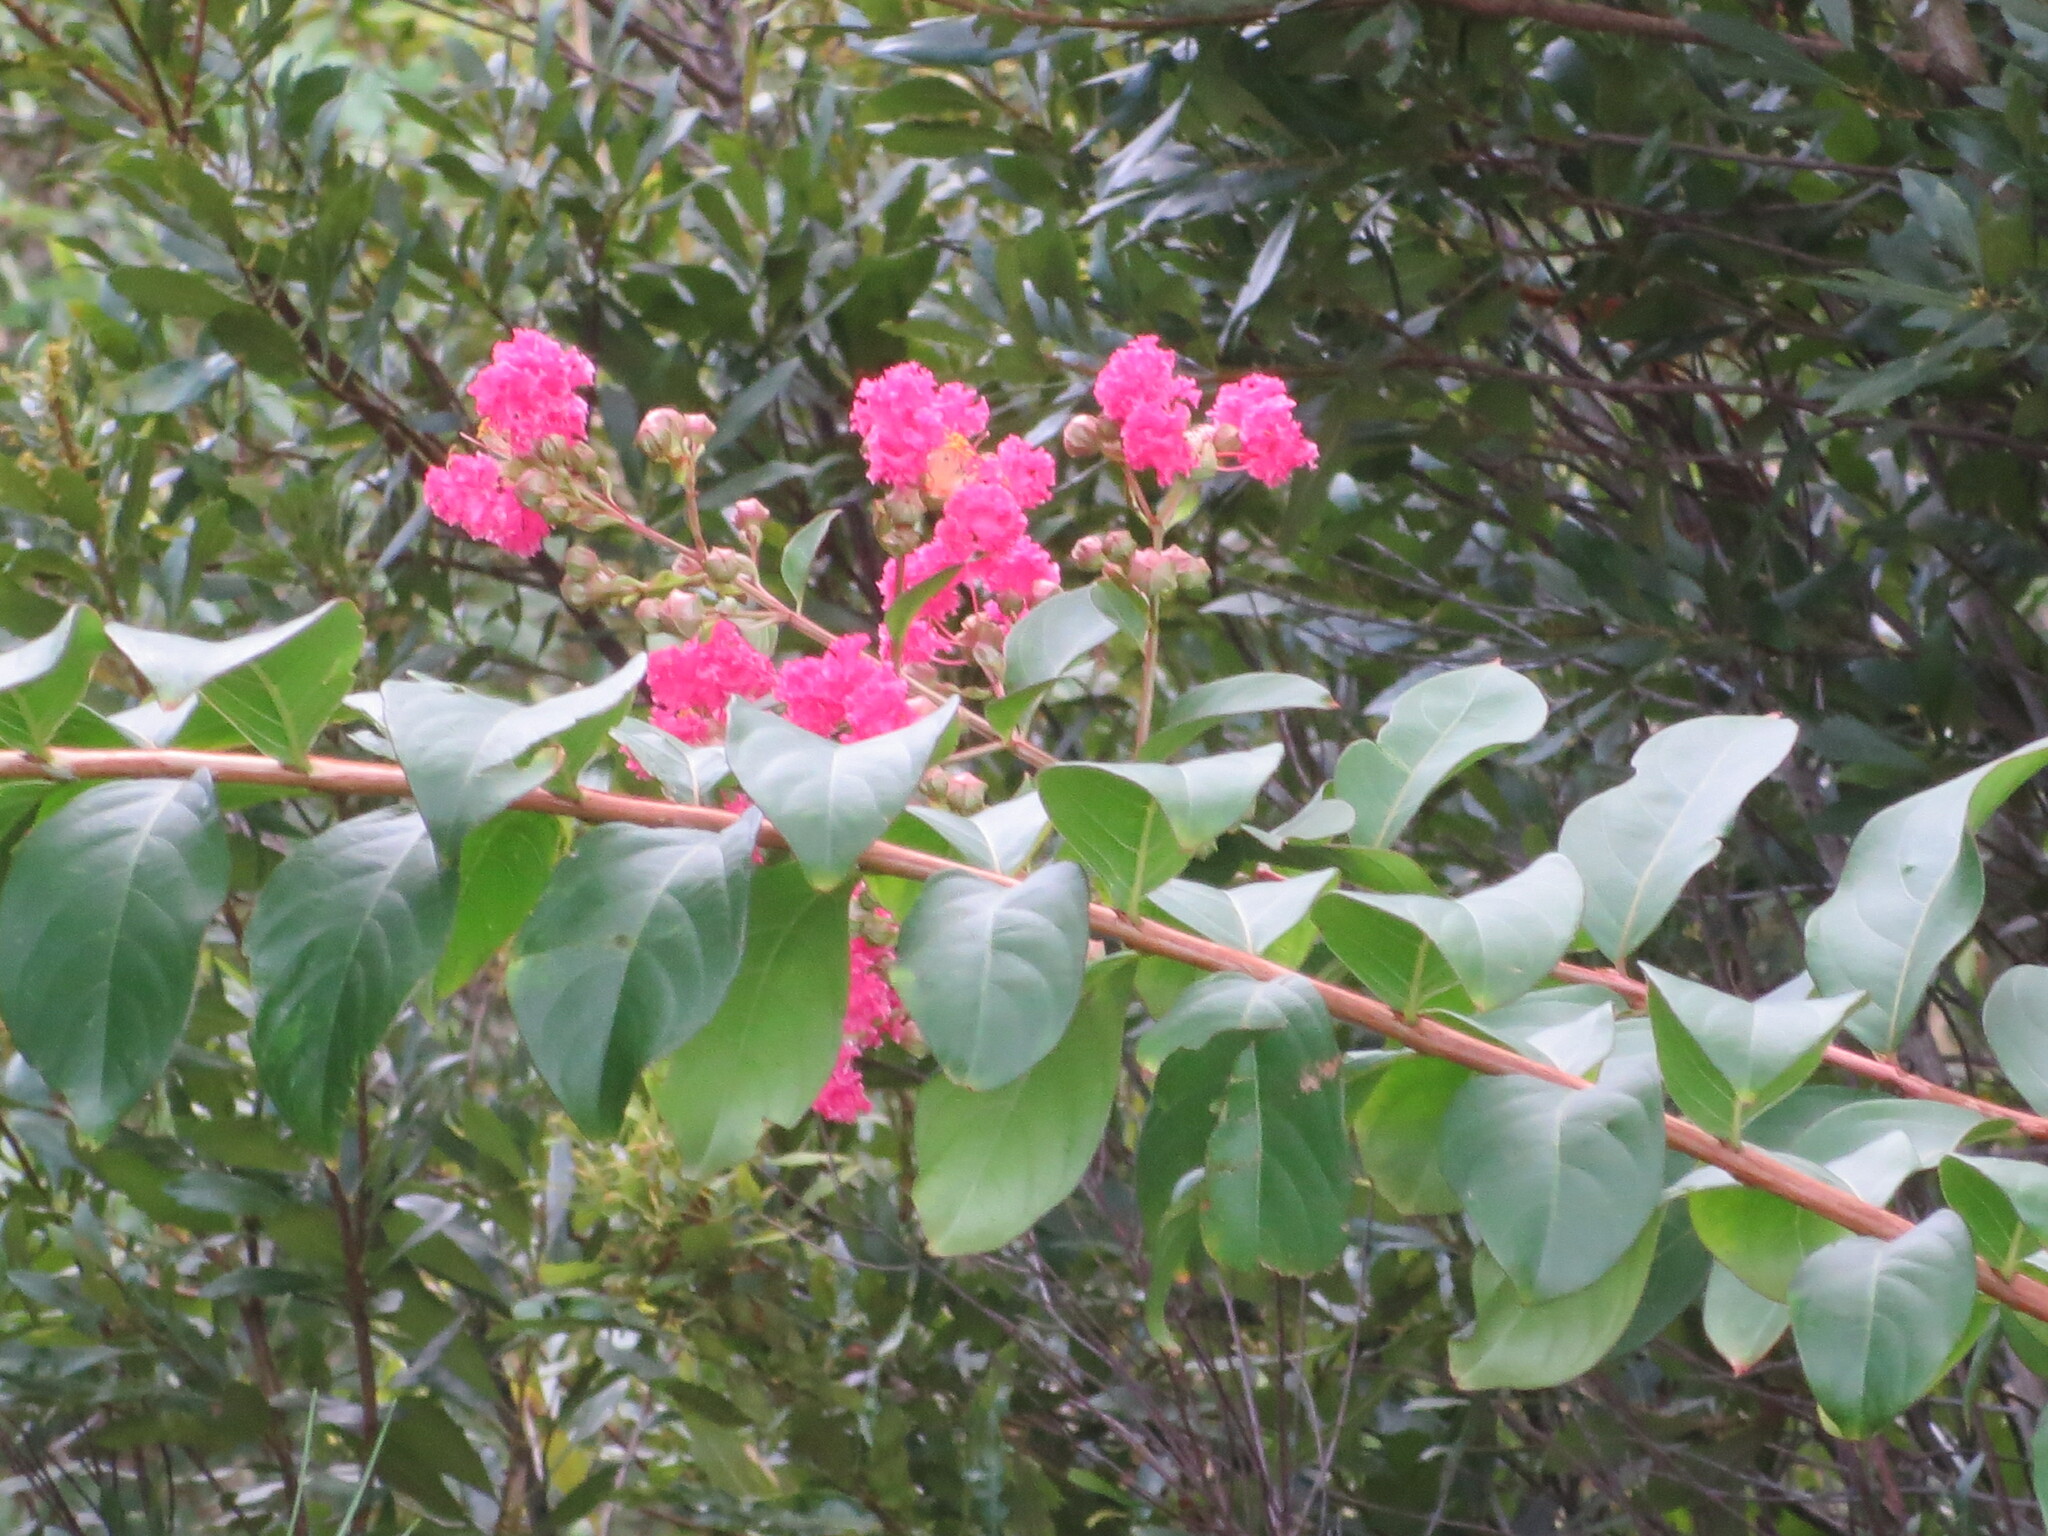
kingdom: Plantae
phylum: Tracheophyta
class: Magnoliopsida
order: Myrtales
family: Lythraceae
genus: Lagerstroemia
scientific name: Lagerstroemia indica
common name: Crape-myrtle
